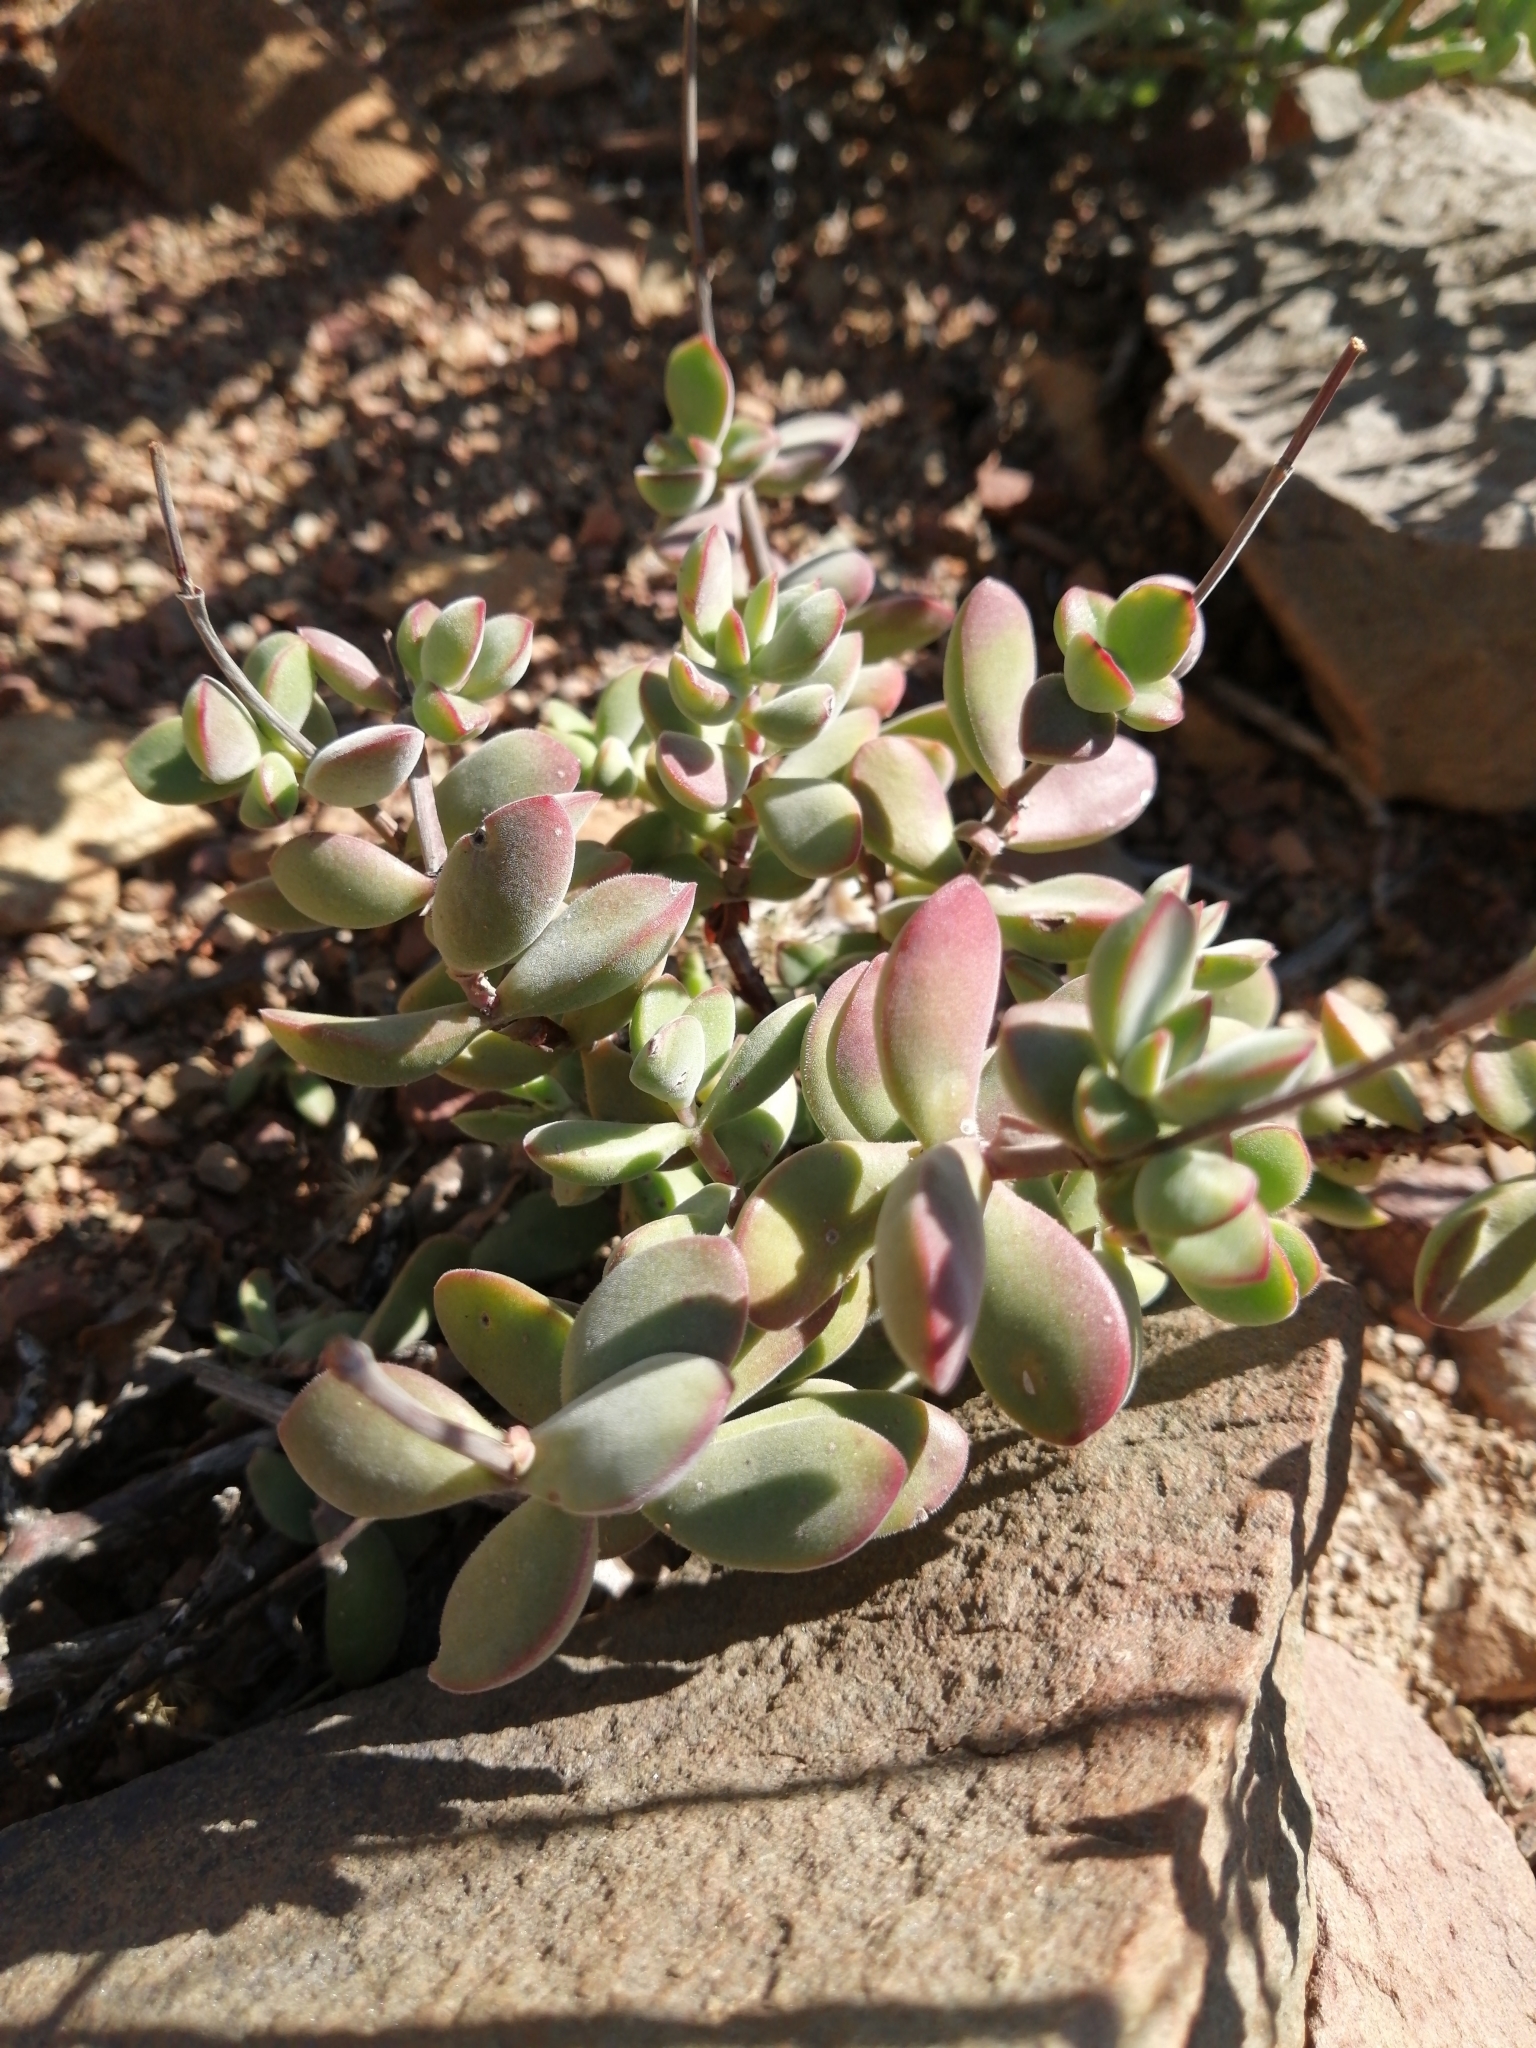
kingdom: Plantae
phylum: Tracheophyta
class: Magnoliopsida
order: Saxifragales
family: Crassulaceae
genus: Crassula
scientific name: Crassula atropurpurea
